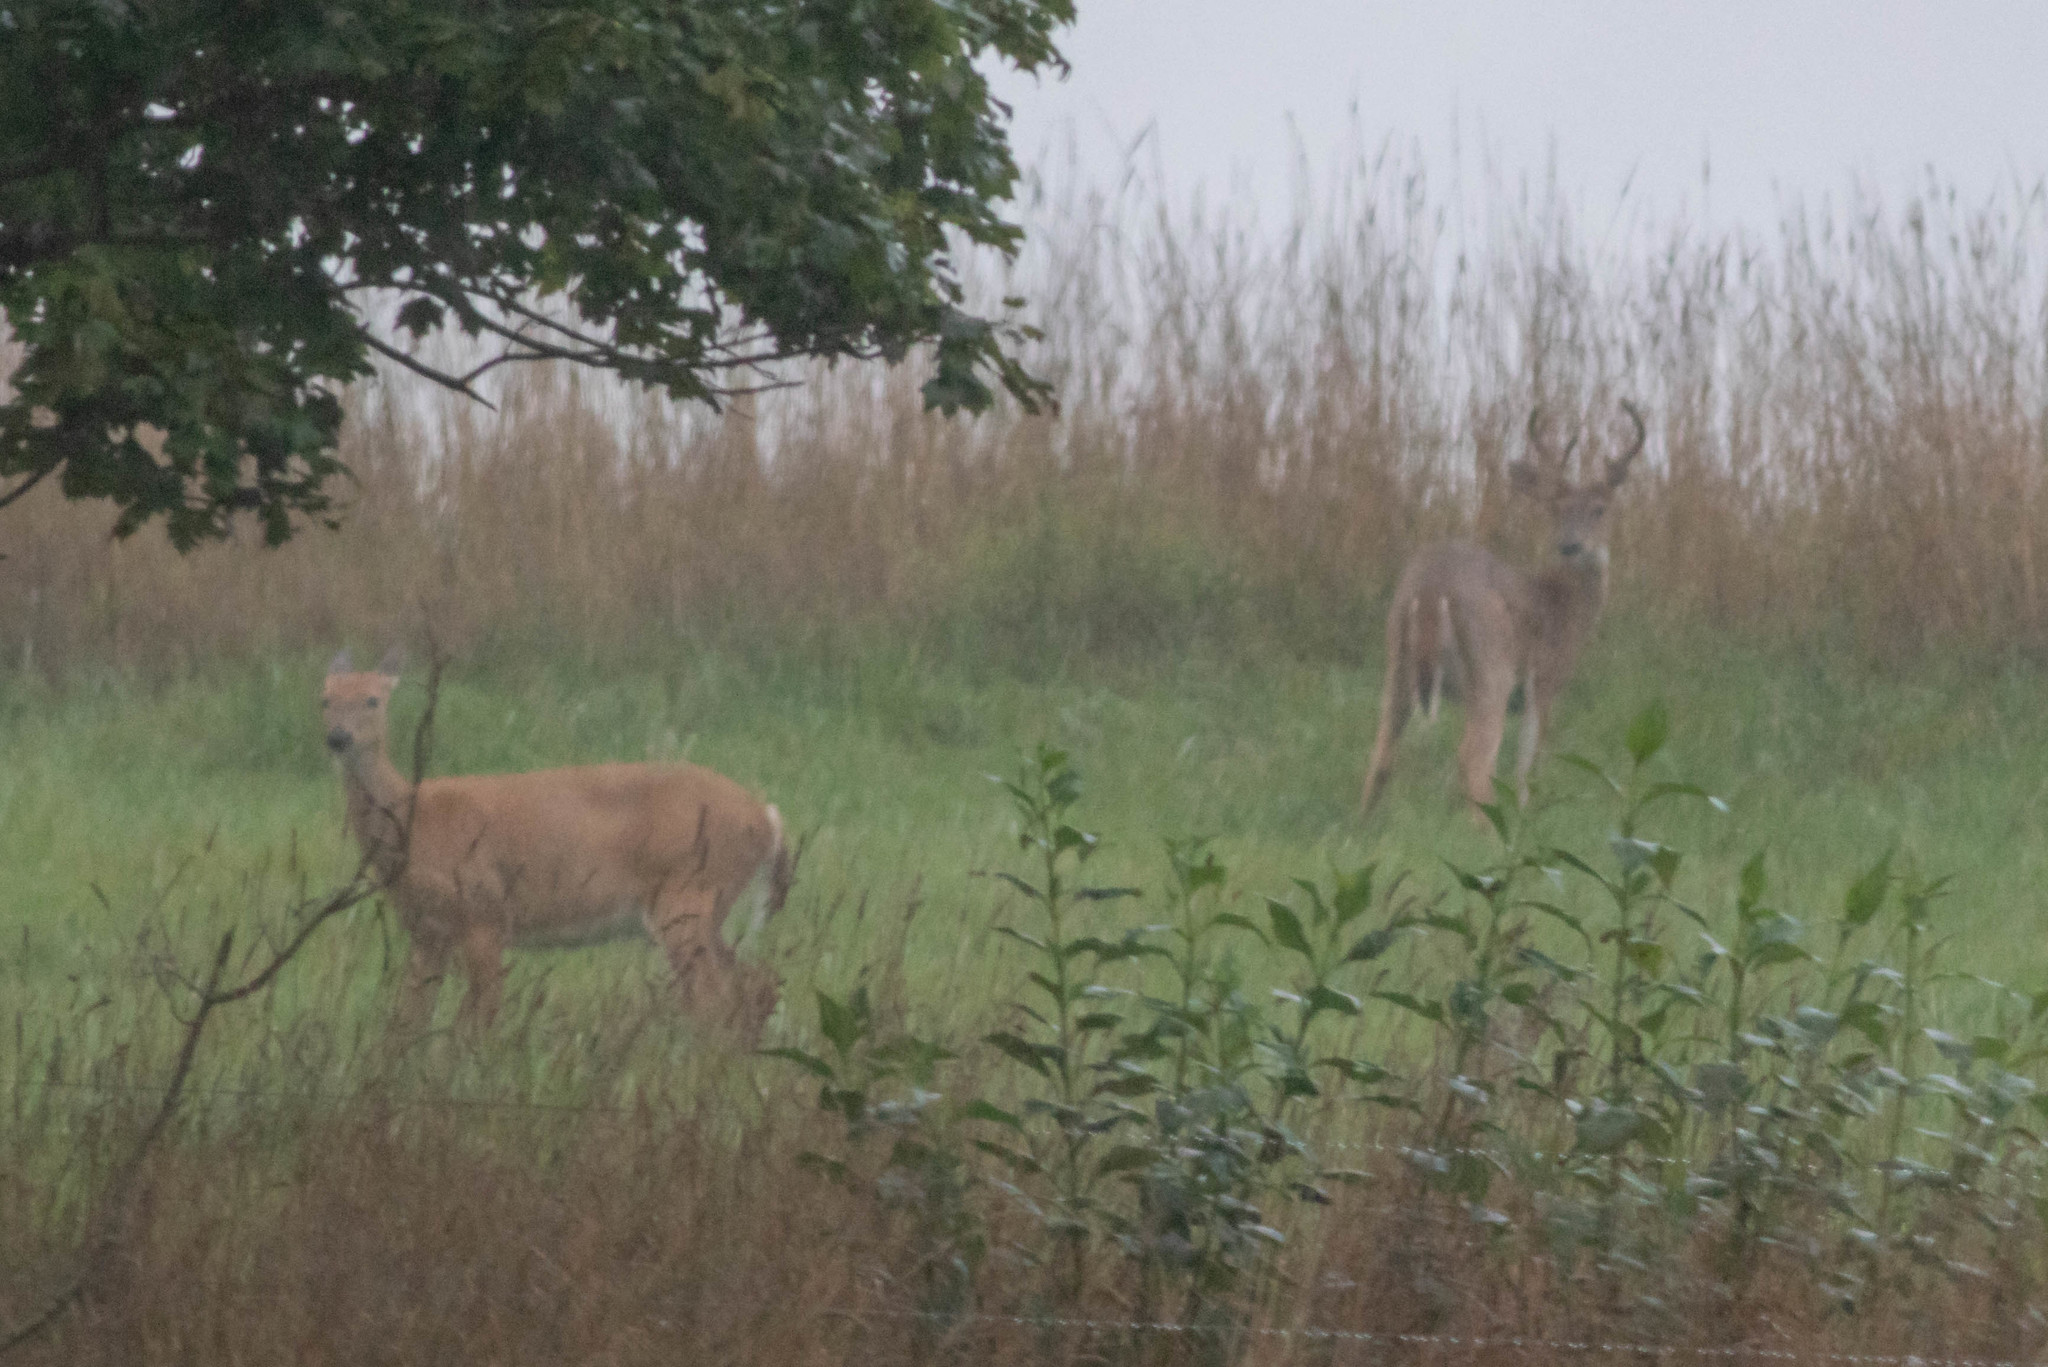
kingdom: Animalia
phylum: Chordata
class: Mammalia
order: Artiodactyla
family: Cervidae
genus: Odocoileus
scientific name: Odocoileus virginianus
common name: White-tailed deer
